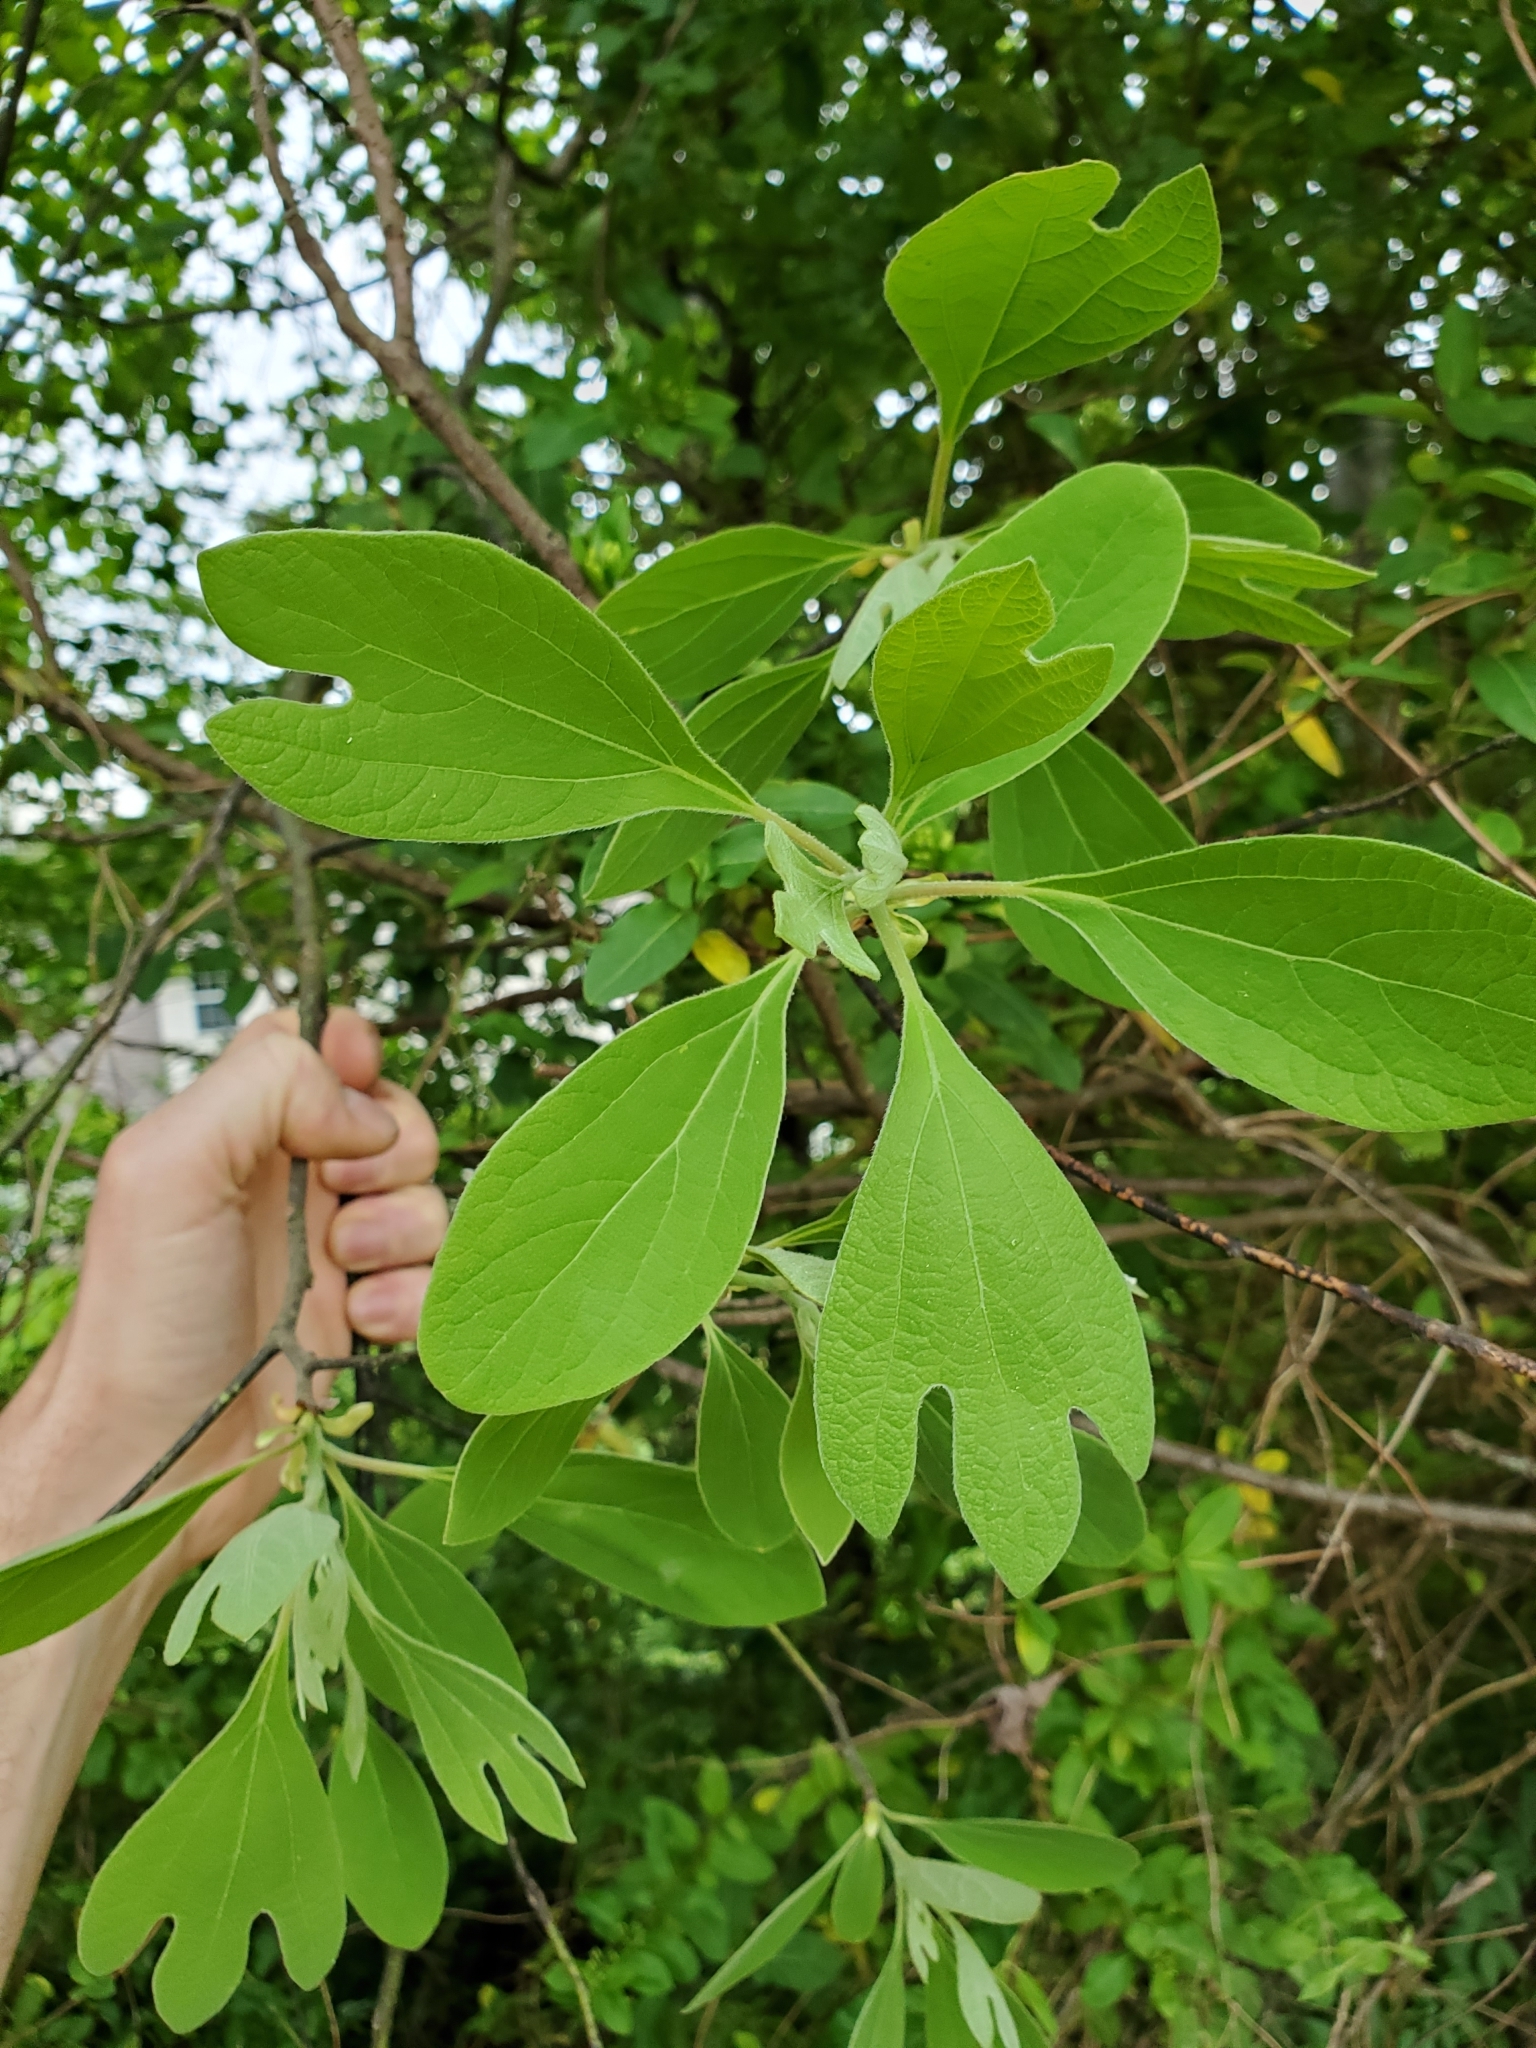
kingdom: Plantae
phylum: Tracheophyta
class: Magnoliopsida
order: Laurales
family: Lauraceae
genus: Sassafras
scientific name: Sassafras albidum
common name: Sassafras
